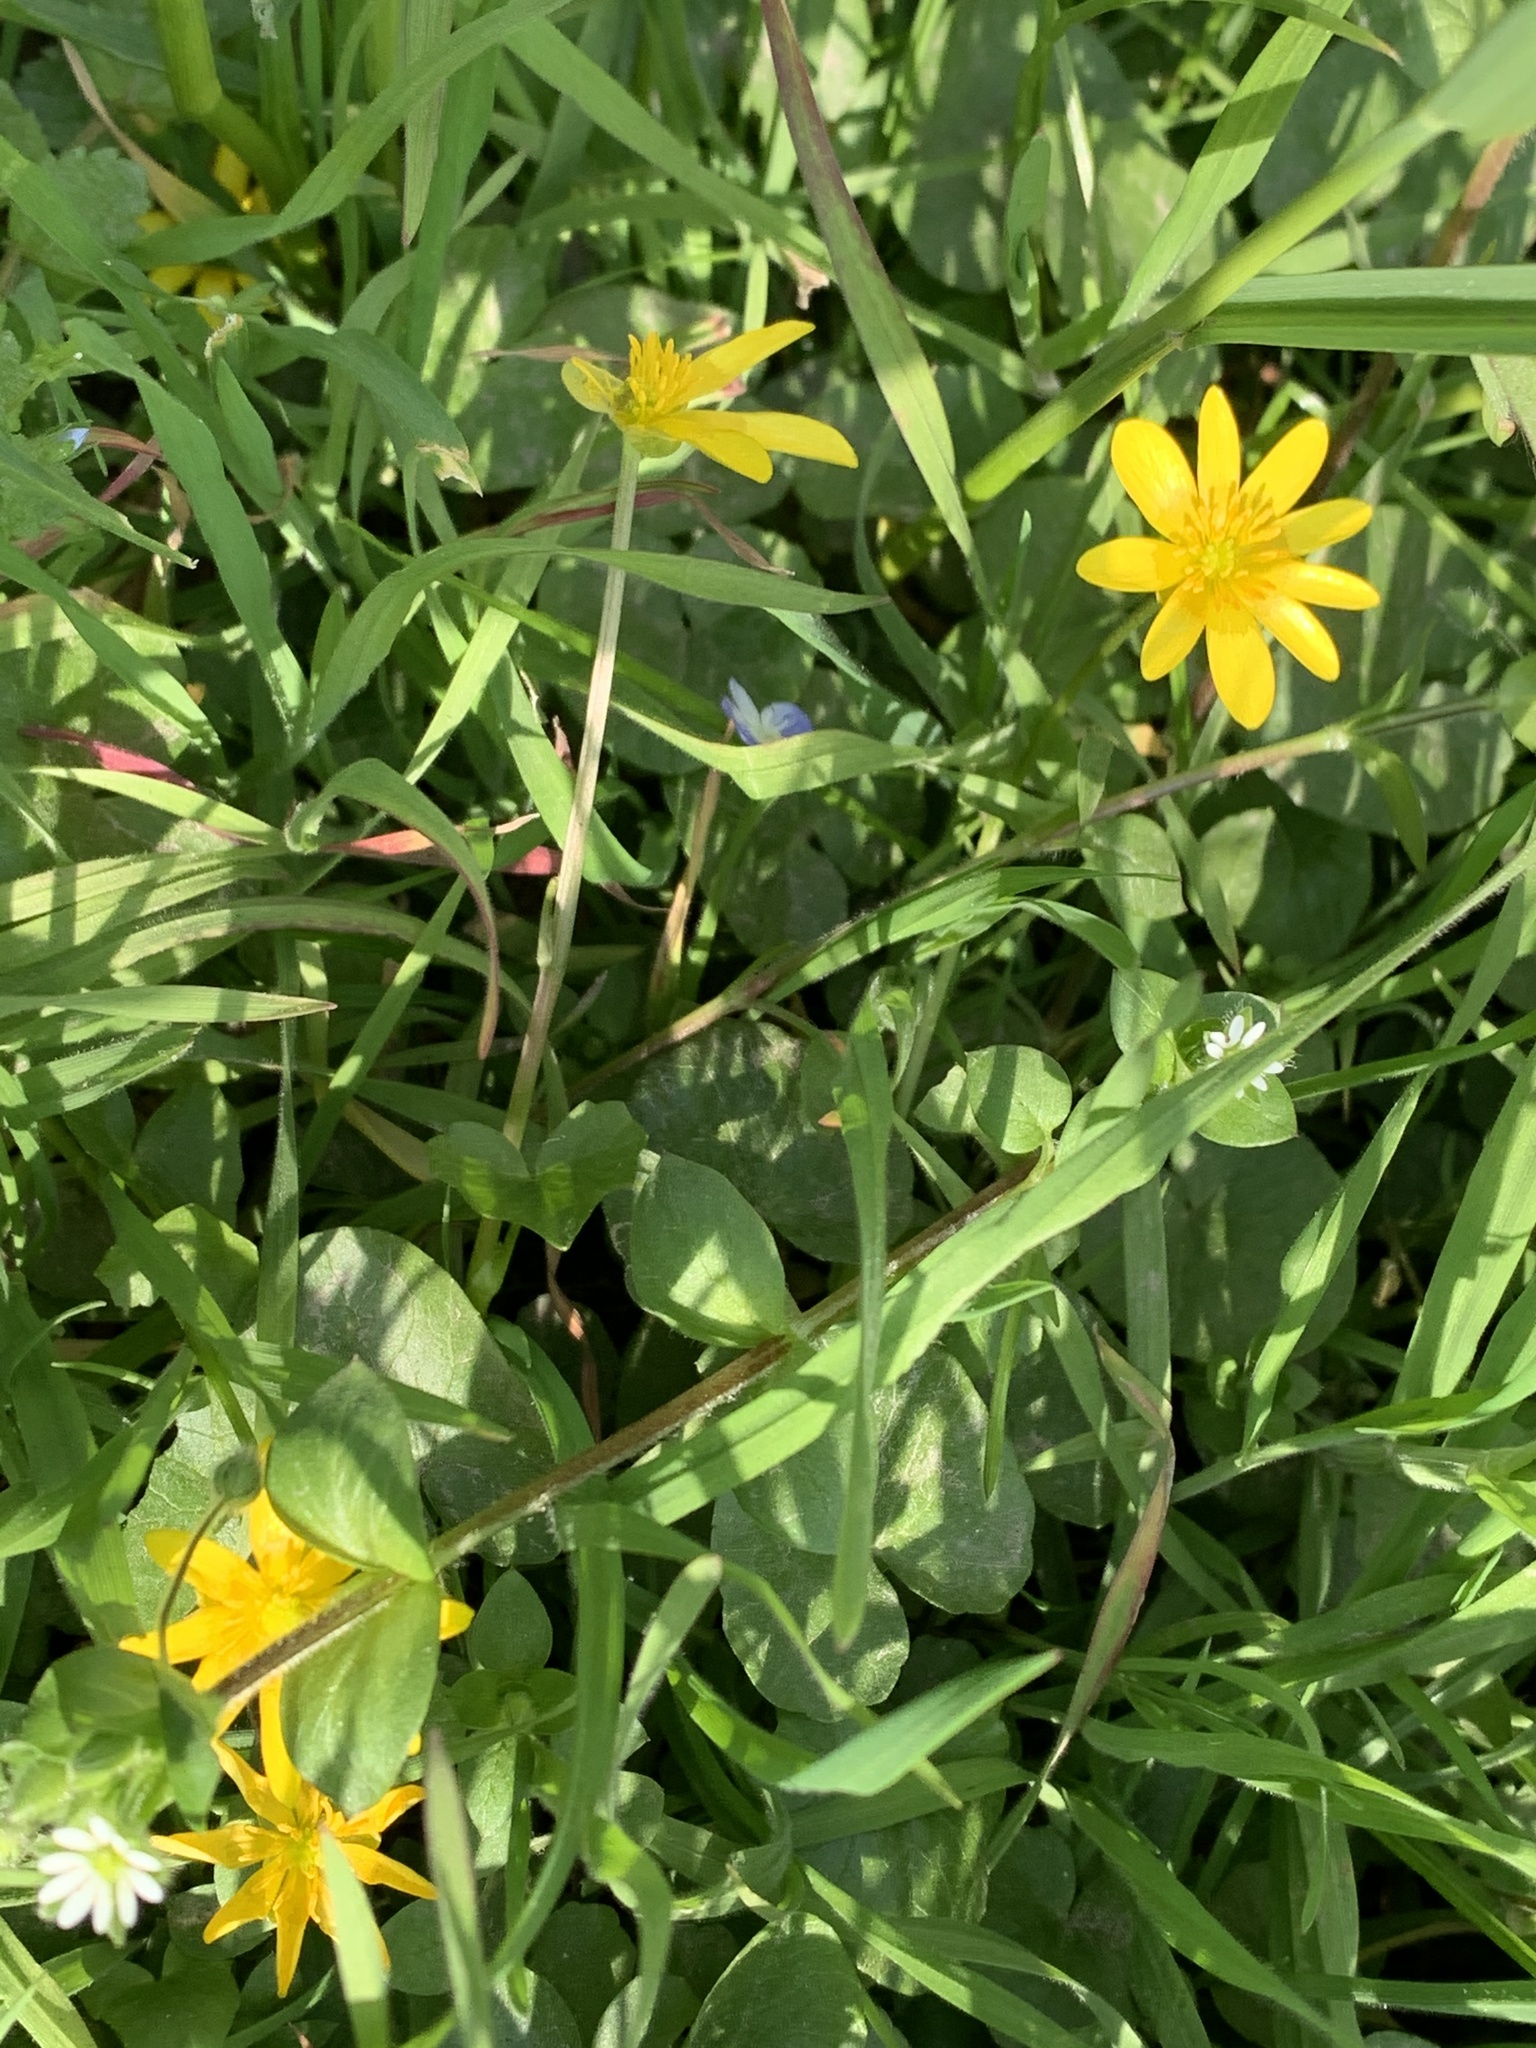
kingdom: Plantae
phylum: Tracheophyta
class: Magnoliopsida
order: Ranunculales
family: Ranunculaceae
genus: Ficaria
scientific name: Ficaria verna
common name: Lesser celandine
